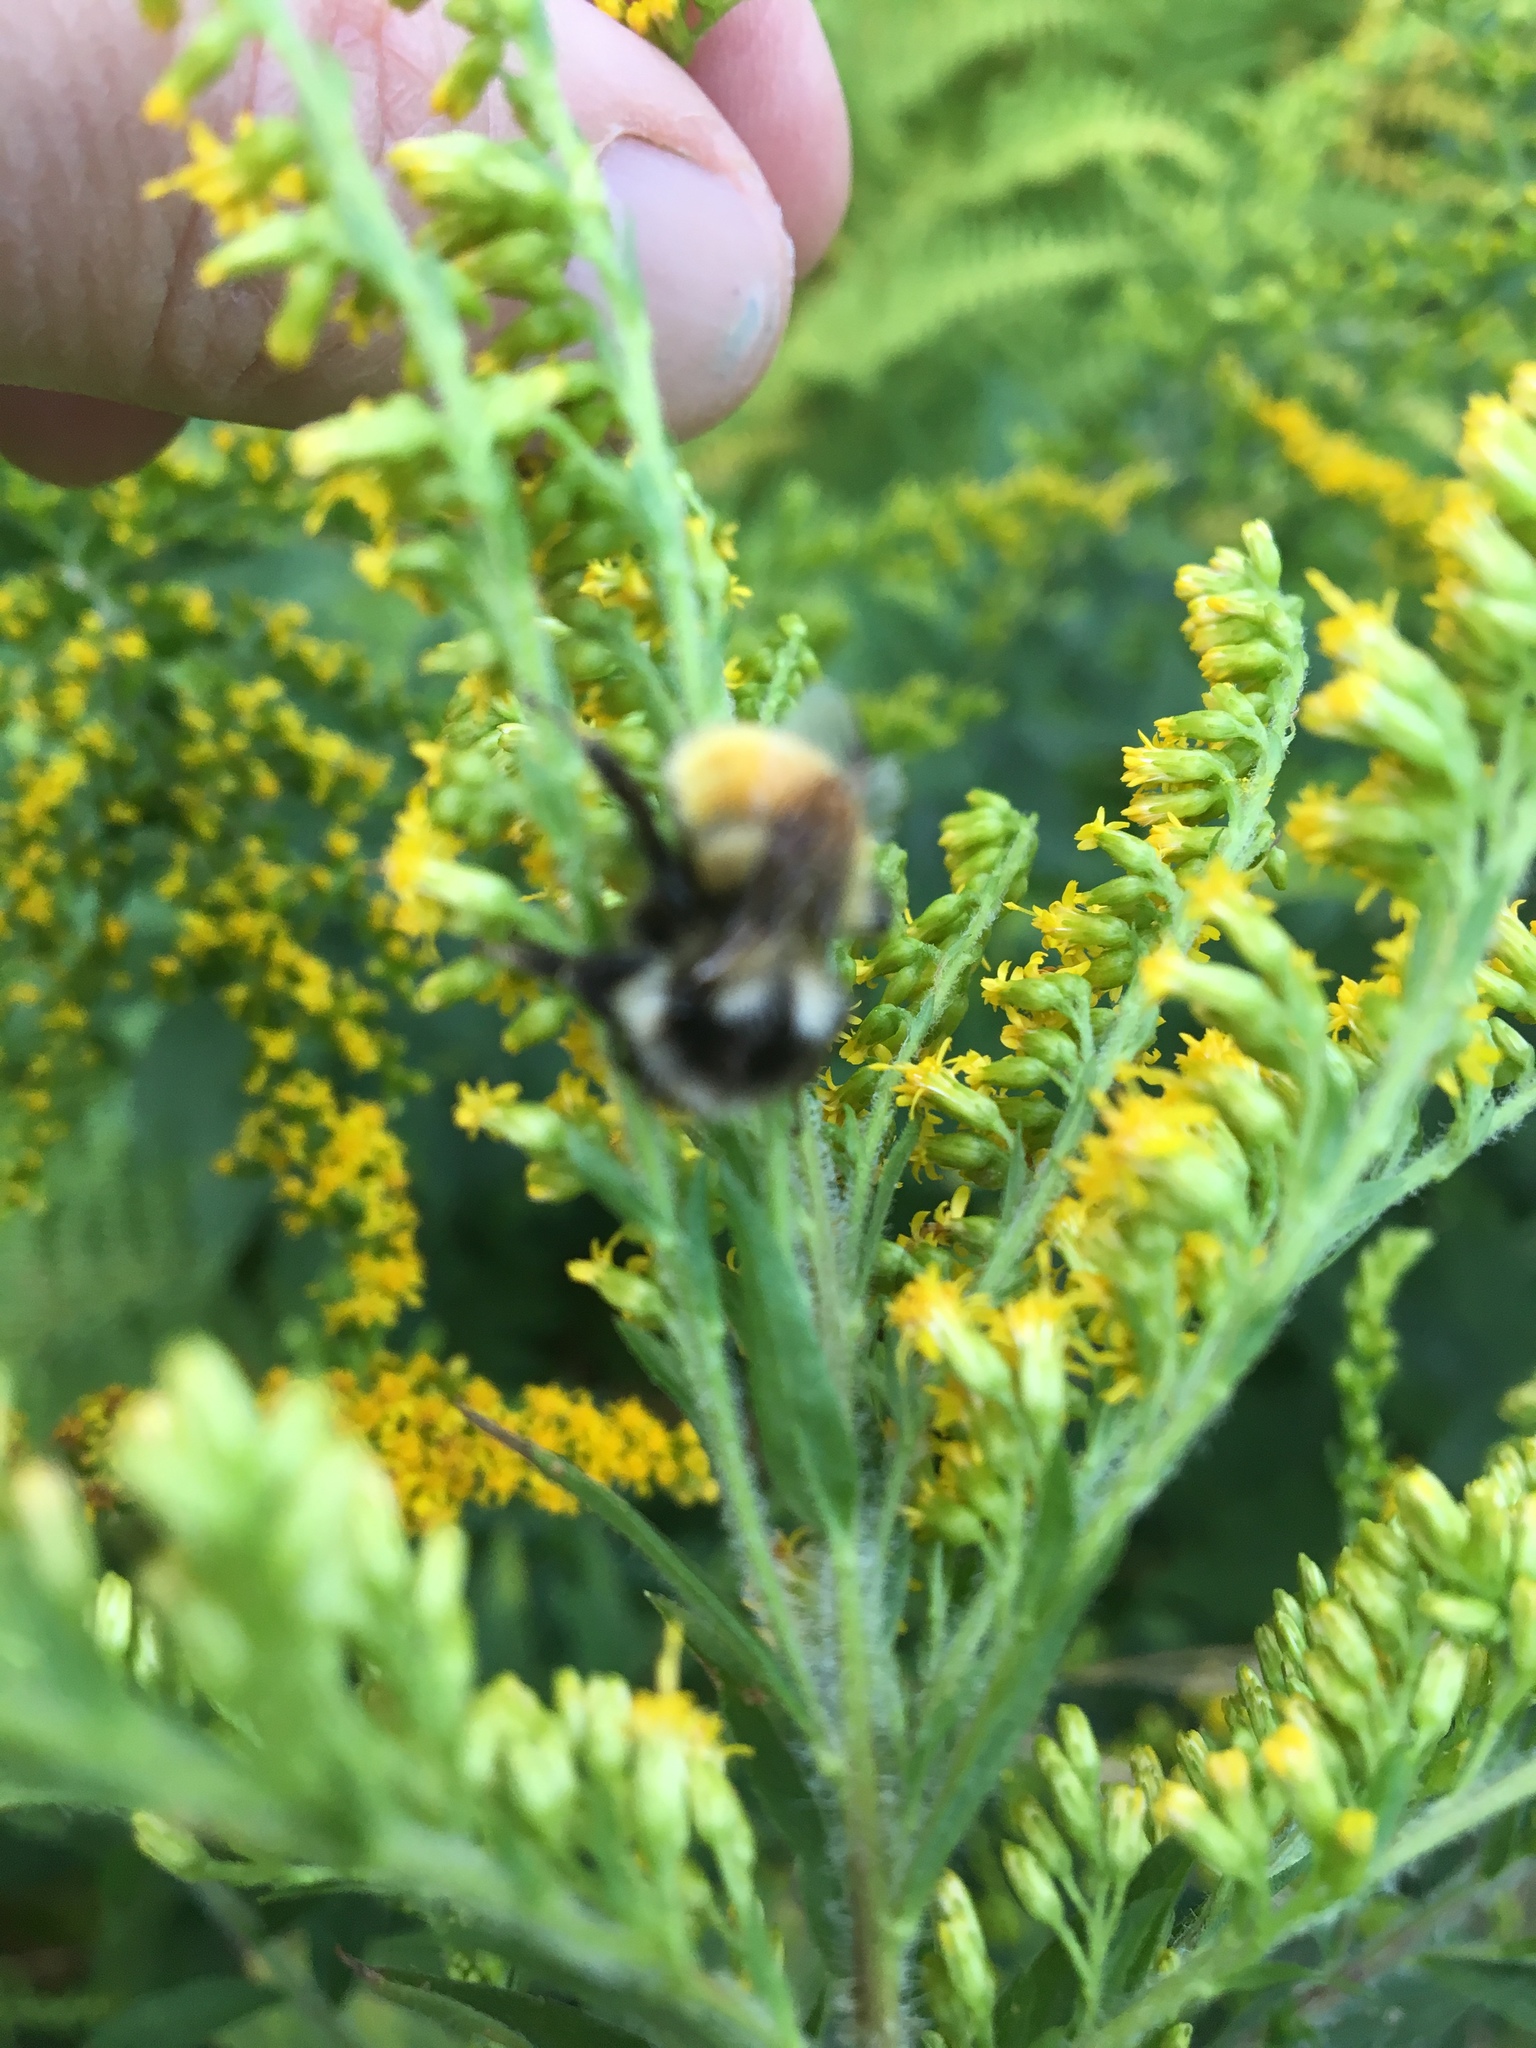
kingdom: Animalia
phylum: Arthropoda
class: Insecta
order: Hymenoptera
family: Apidae
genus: Bombus
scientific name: Bombus ternarius
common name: Tri-colored bumble bee
